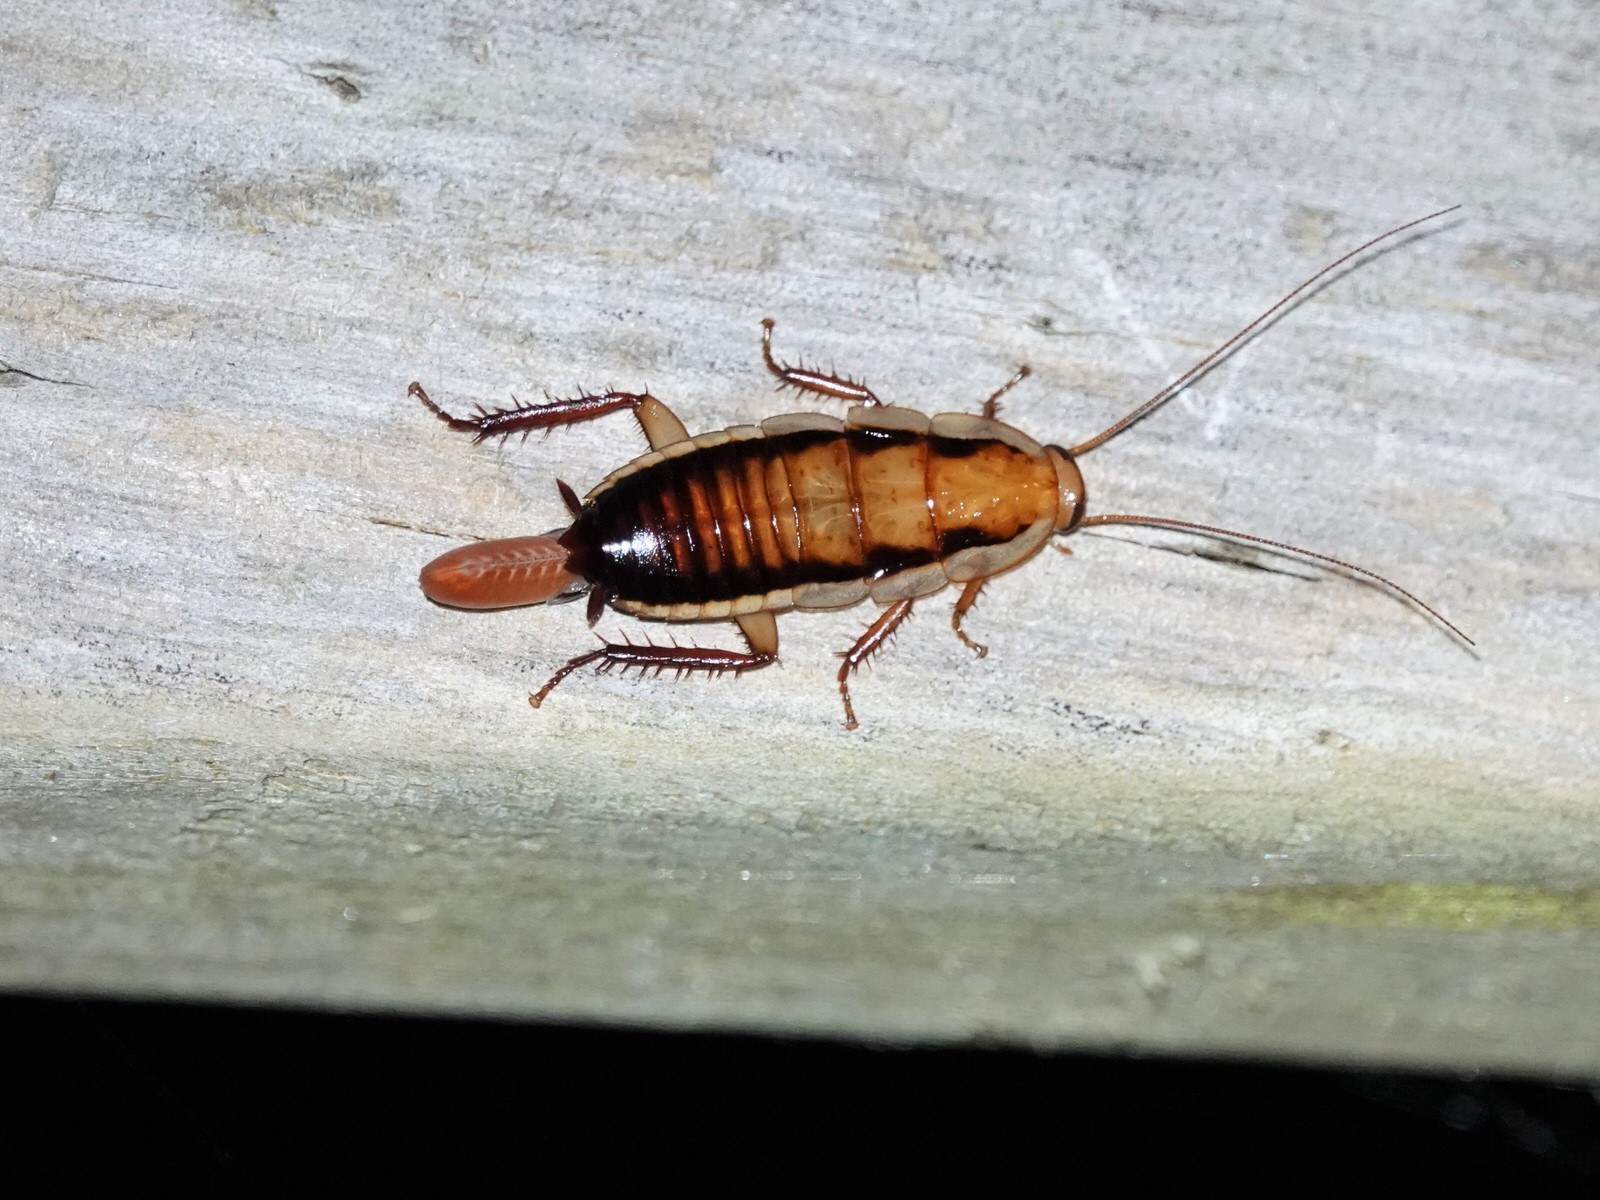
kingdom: Animalia
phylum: Arthropoda
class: Insecta
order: Blattodea
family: Blattidae
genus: Drymaplaneta
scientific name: Drymaplaneta heydeniana
